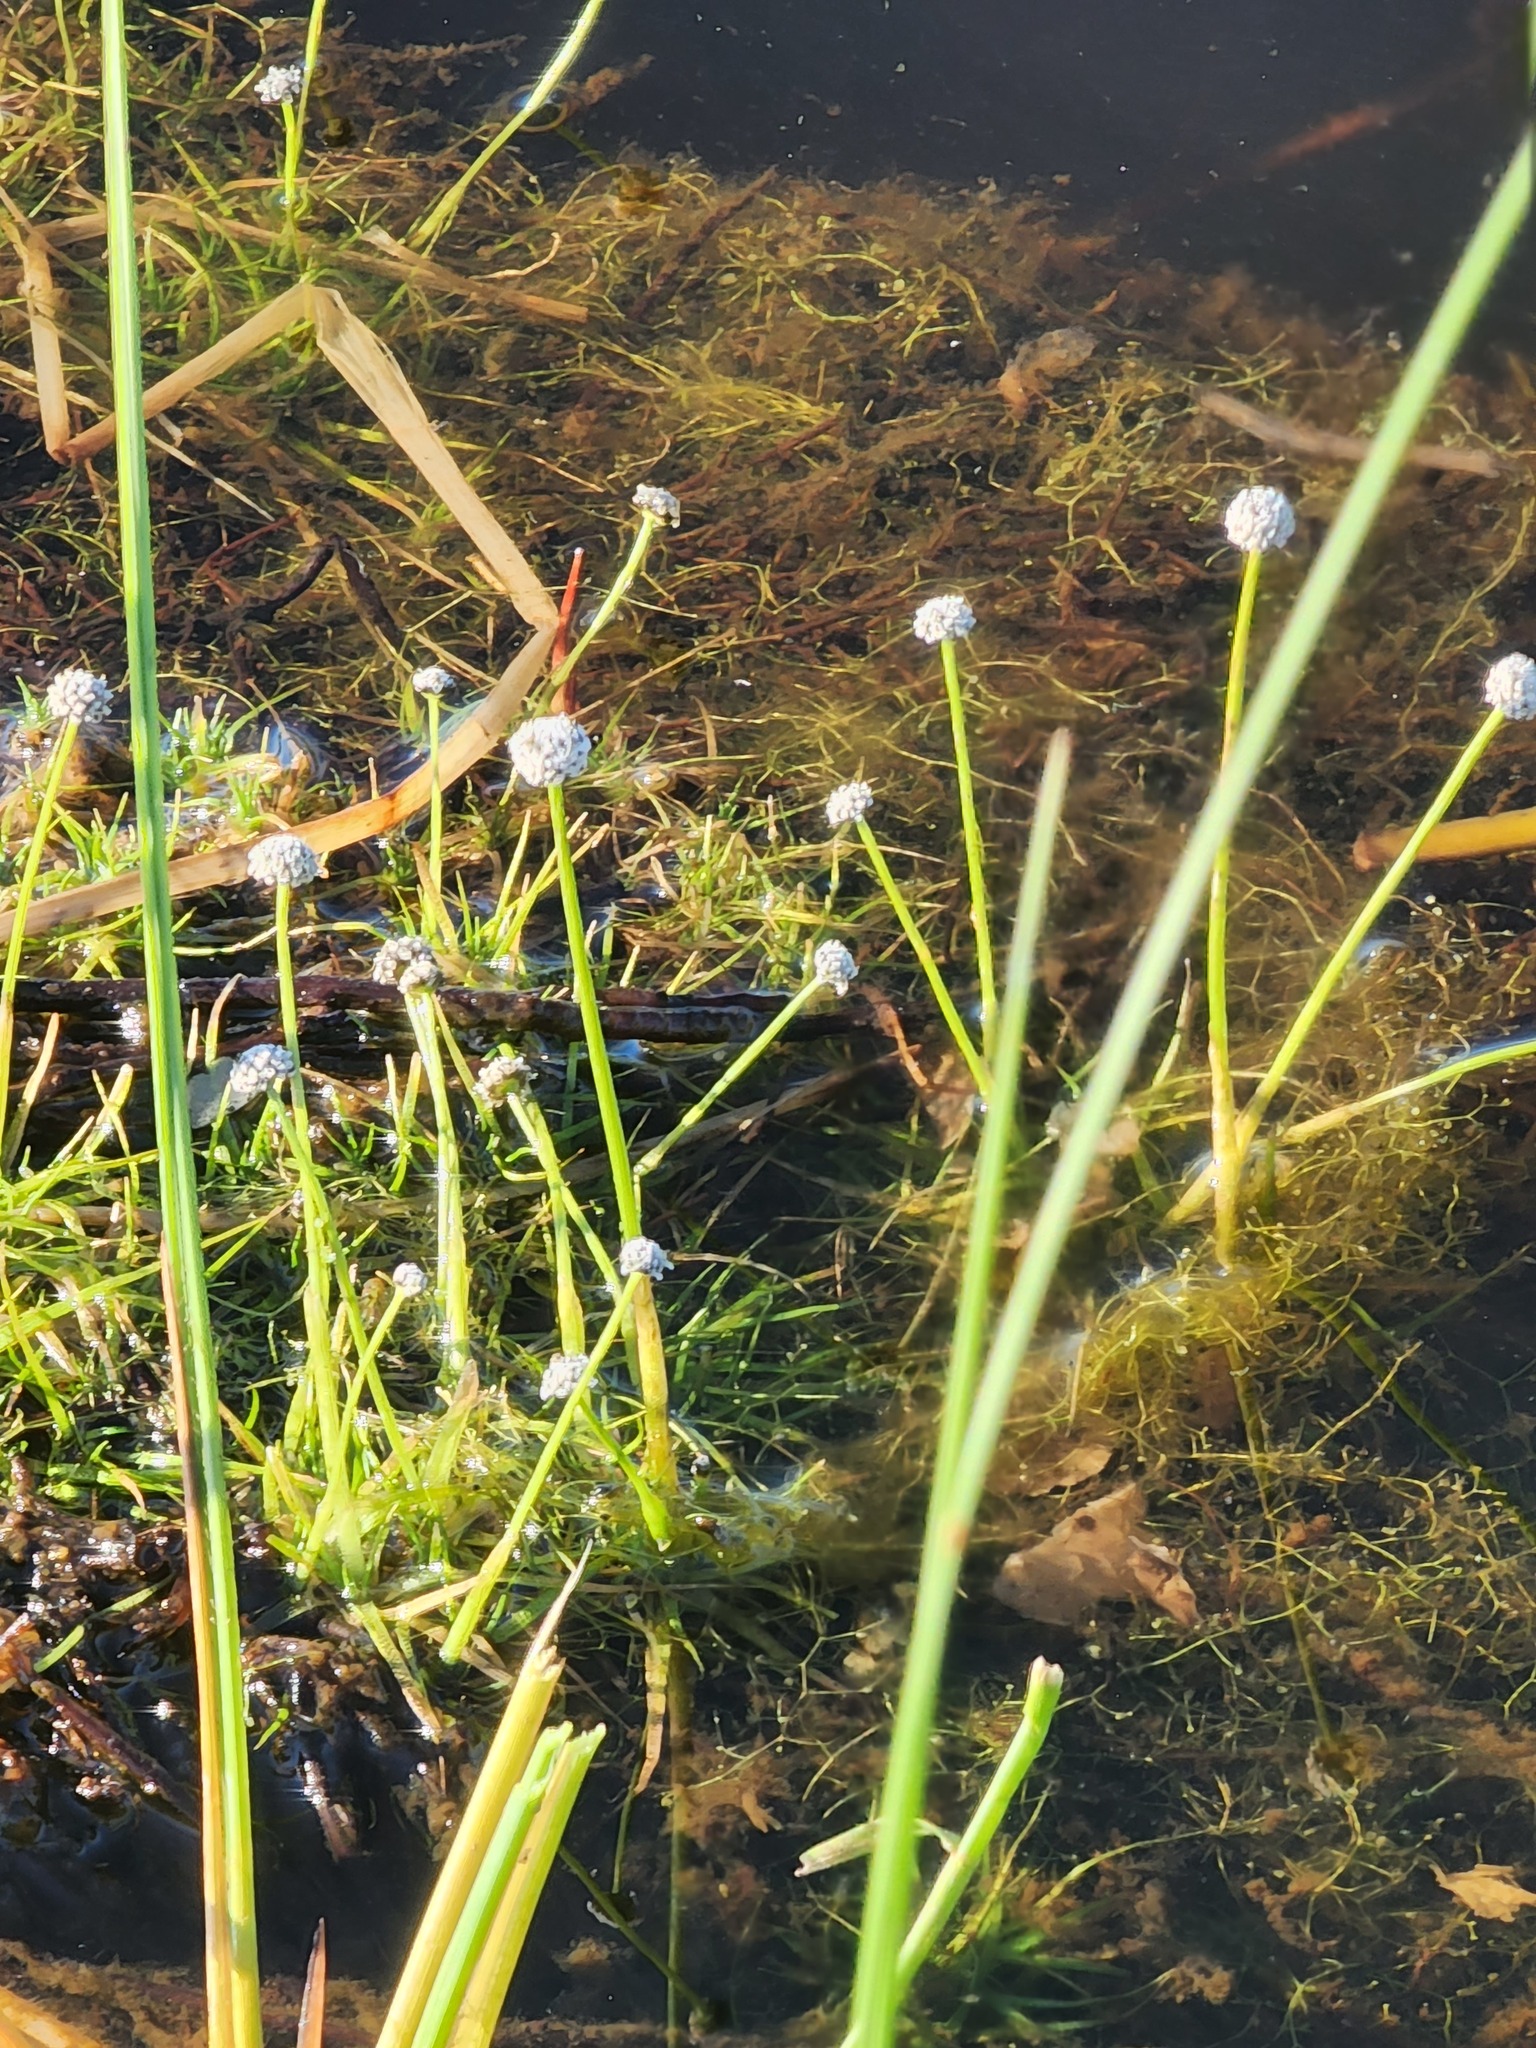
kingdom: Plantae
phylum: Tracheophyta
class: Liliopsida
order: Poales
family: Eriocaulaceae
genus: Eriocaulon
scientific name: Eriocaulon aquaticum
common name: Pipewort
